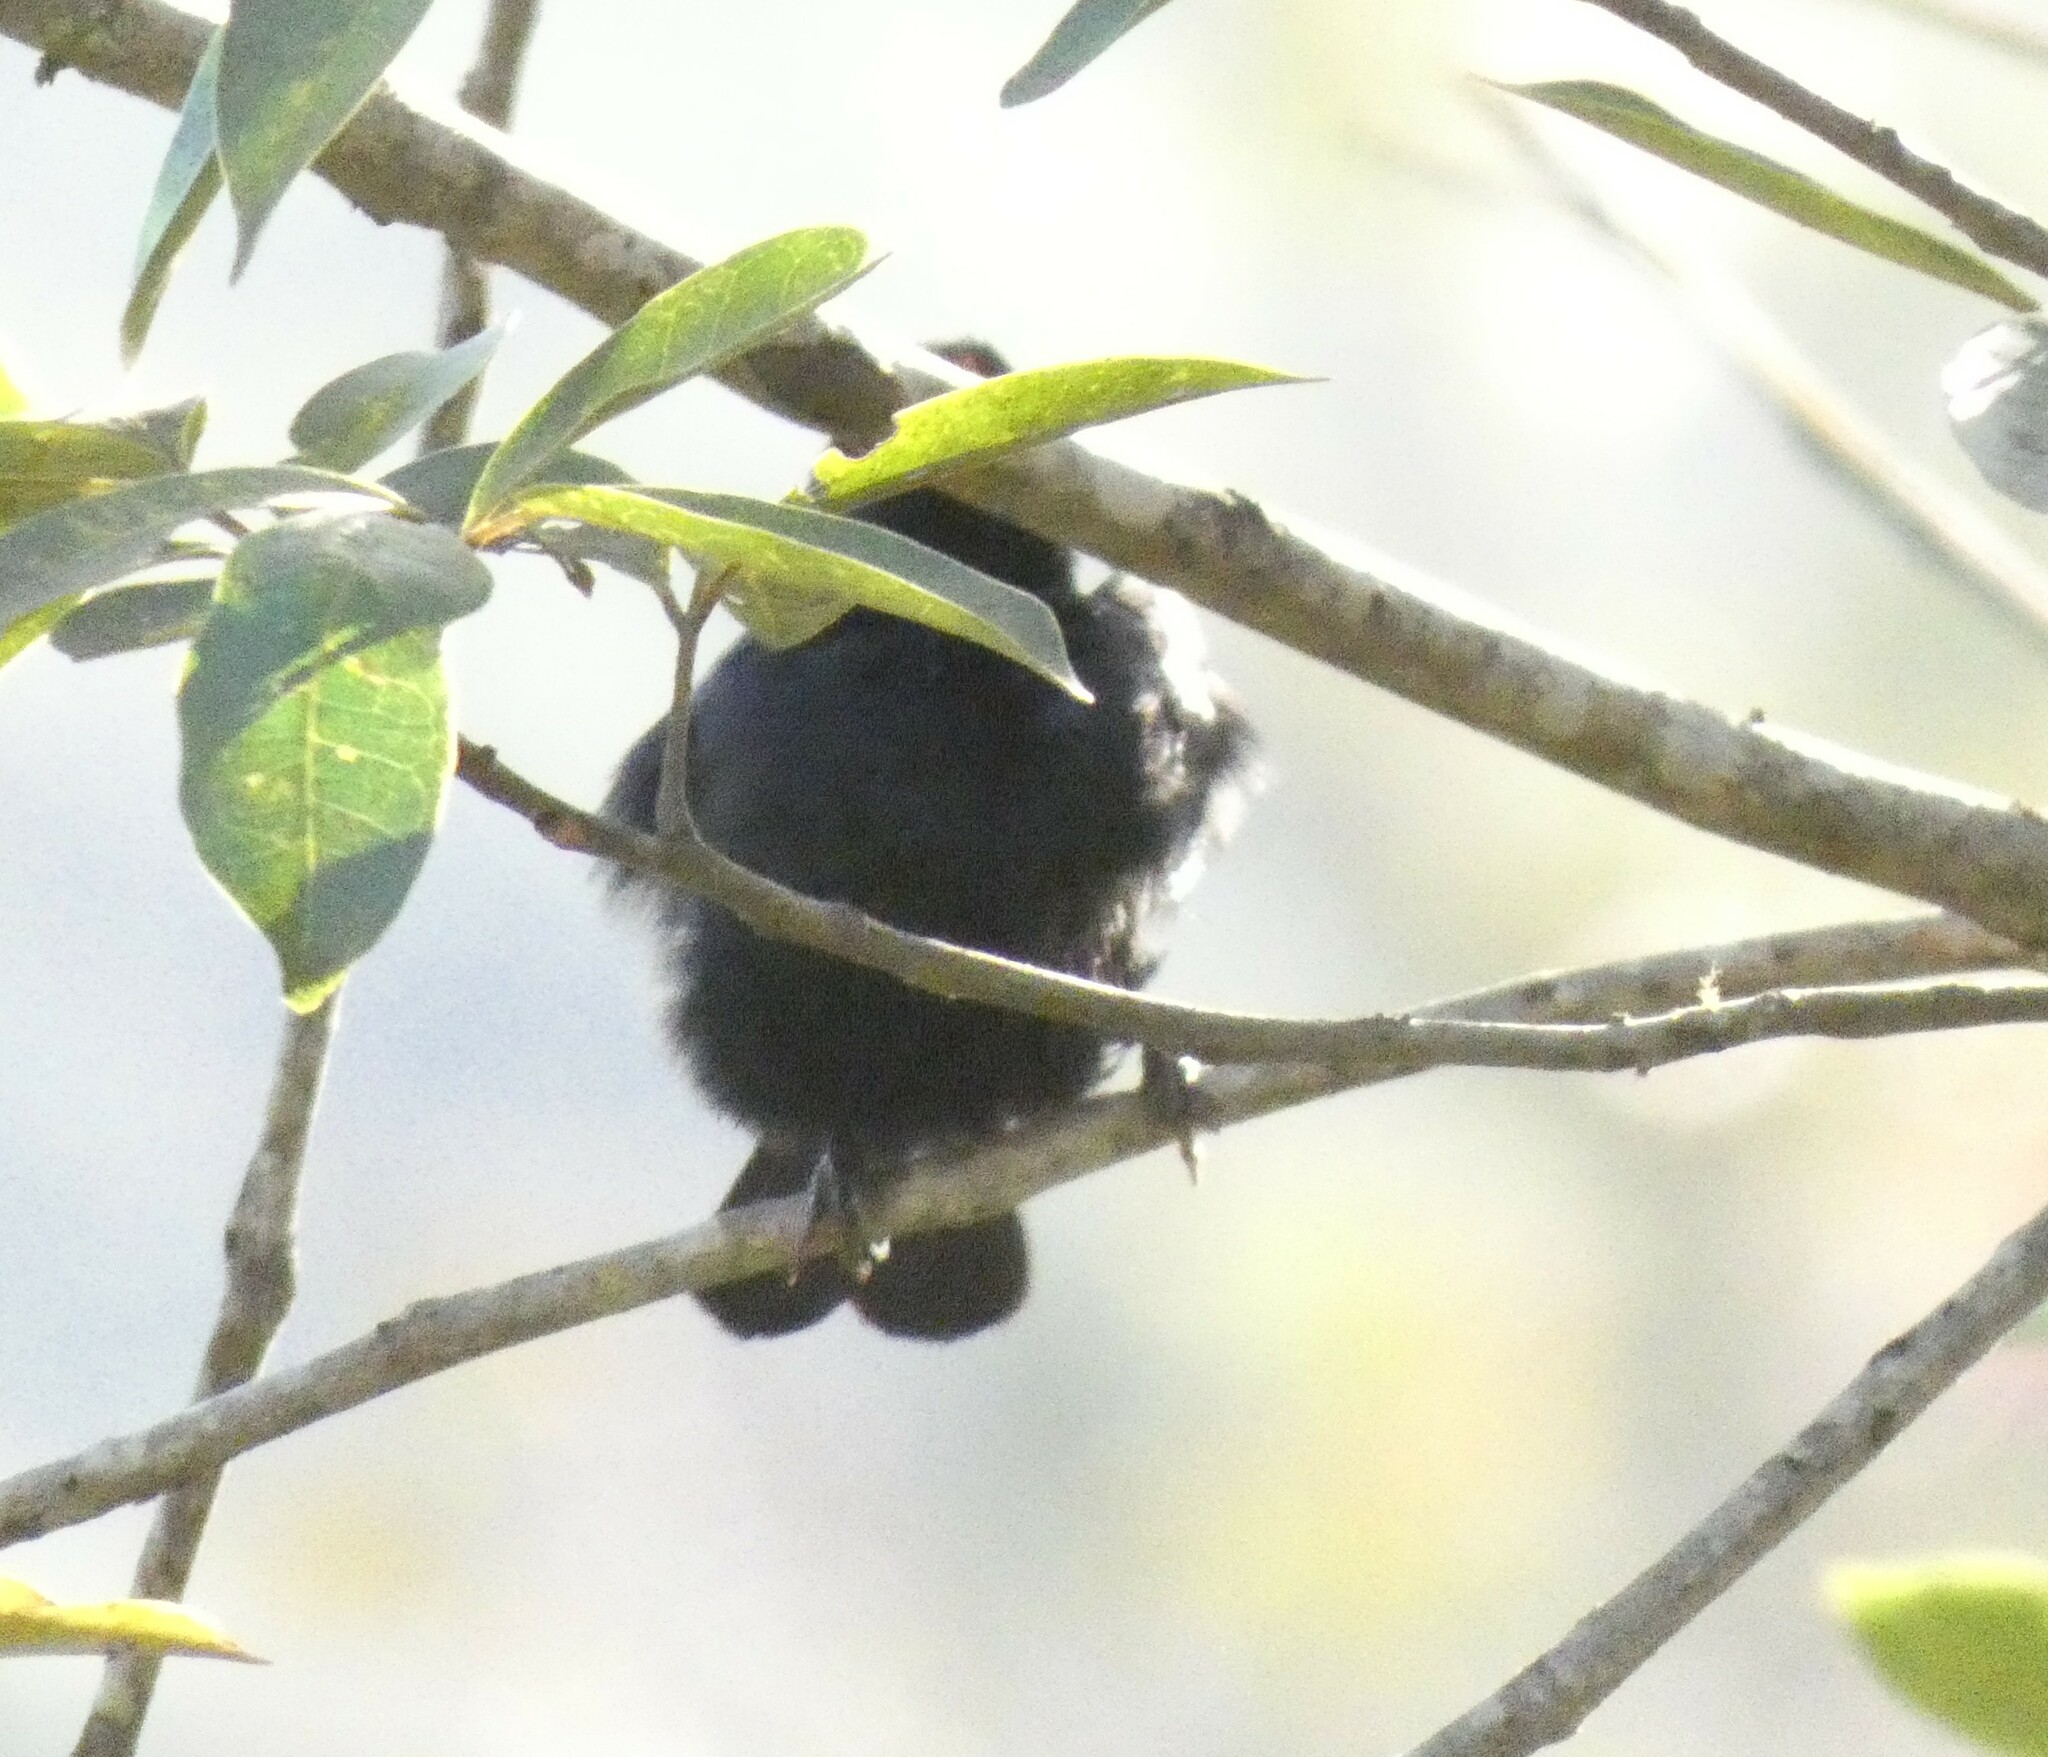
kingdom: Animalia
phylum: Chordata
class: Aves
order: Passeriformes
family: Thraupidae
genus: Tachyphonus
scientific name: Tachyphonus coronatus
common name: Ruby-crowned tanager
